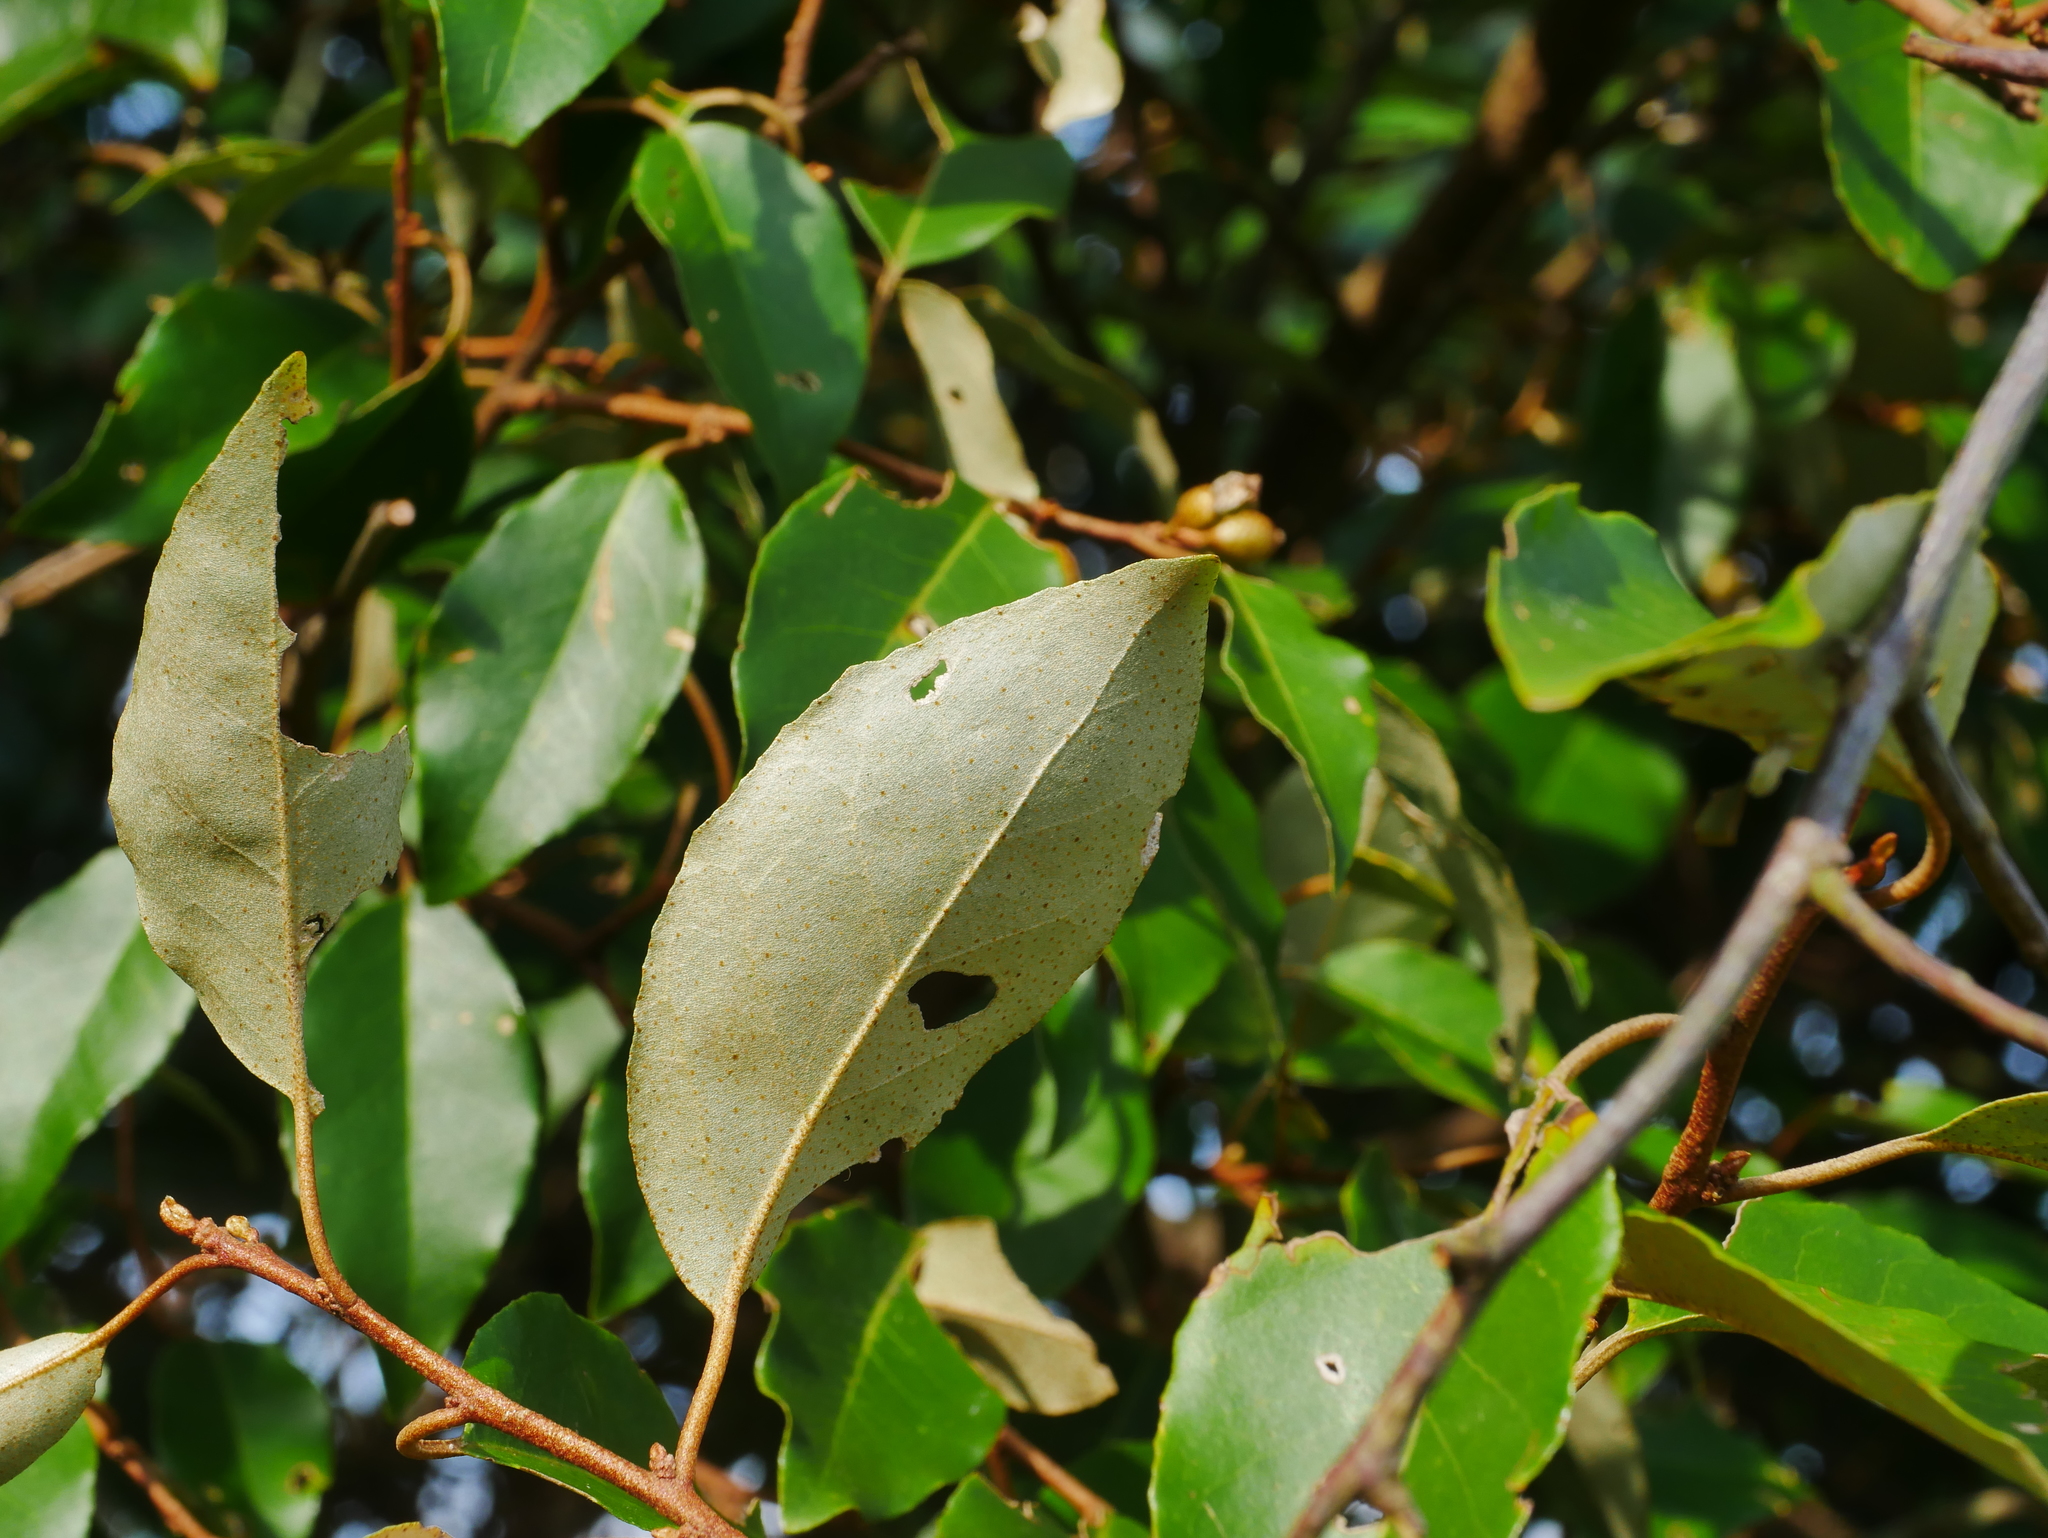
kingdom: Plantae
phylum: Tracheophyta
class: Magnoliopsida
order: Rosales
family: Elaeagnaceae
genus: Elaeagnus
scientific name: Elaeagnus thunbergii
